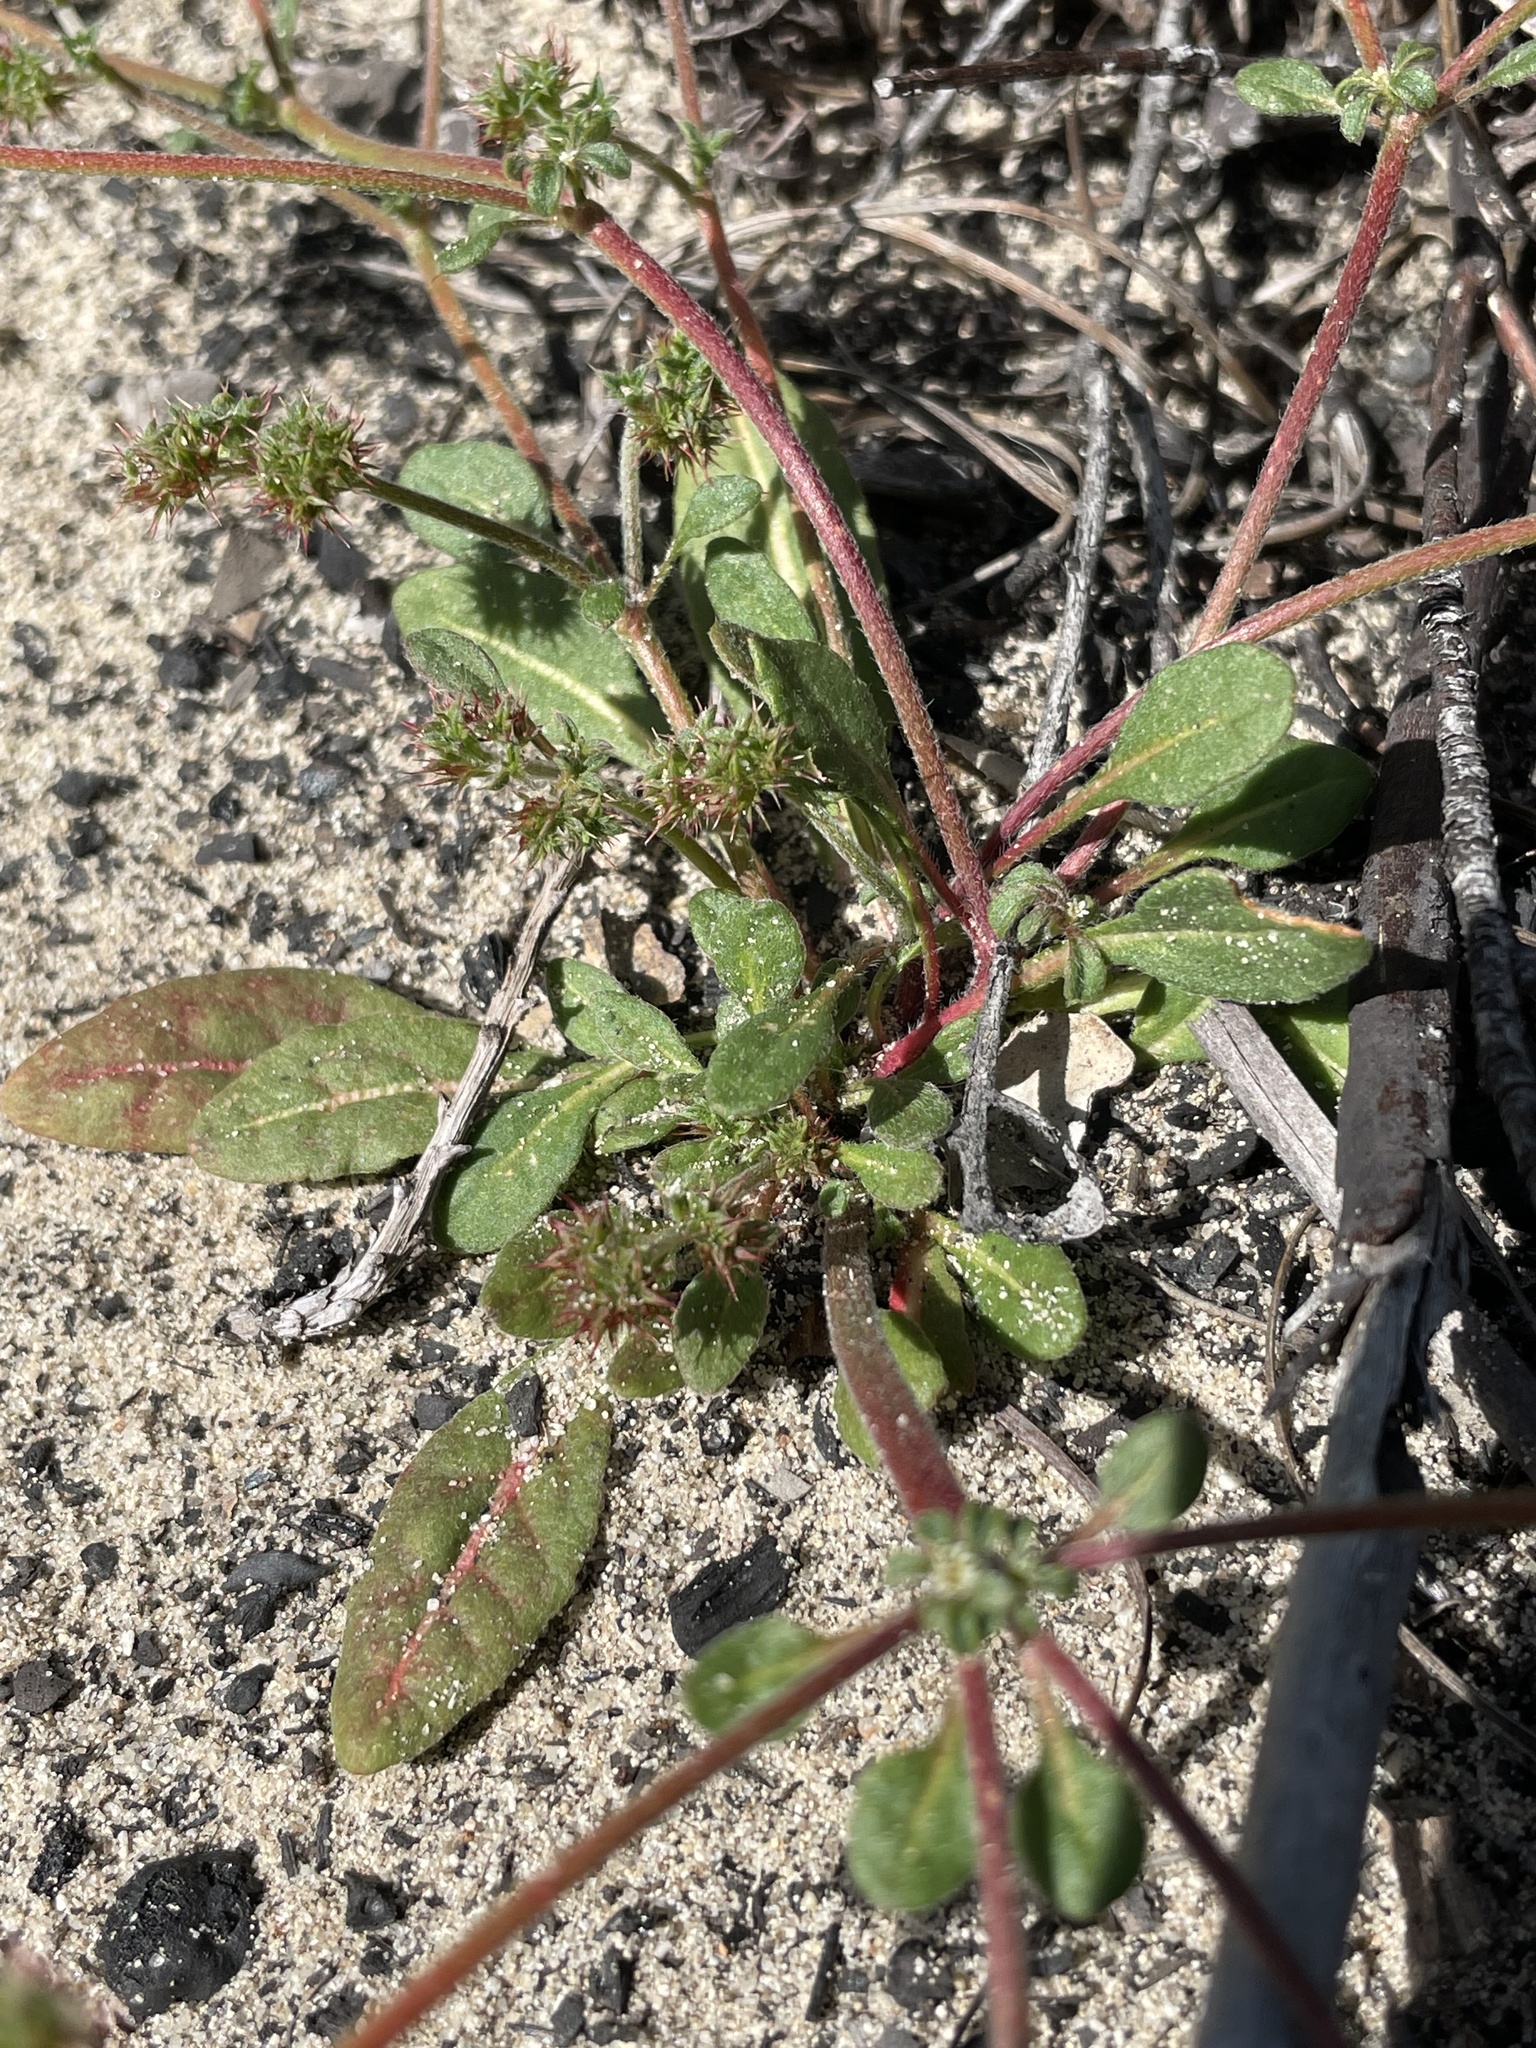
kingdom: Plantae
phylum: Tracheophyta
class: Magnoliopsida
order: Caryophyllales
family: Polygonaceae
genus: Chorizanthe
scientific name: Chorizanthe pungens
